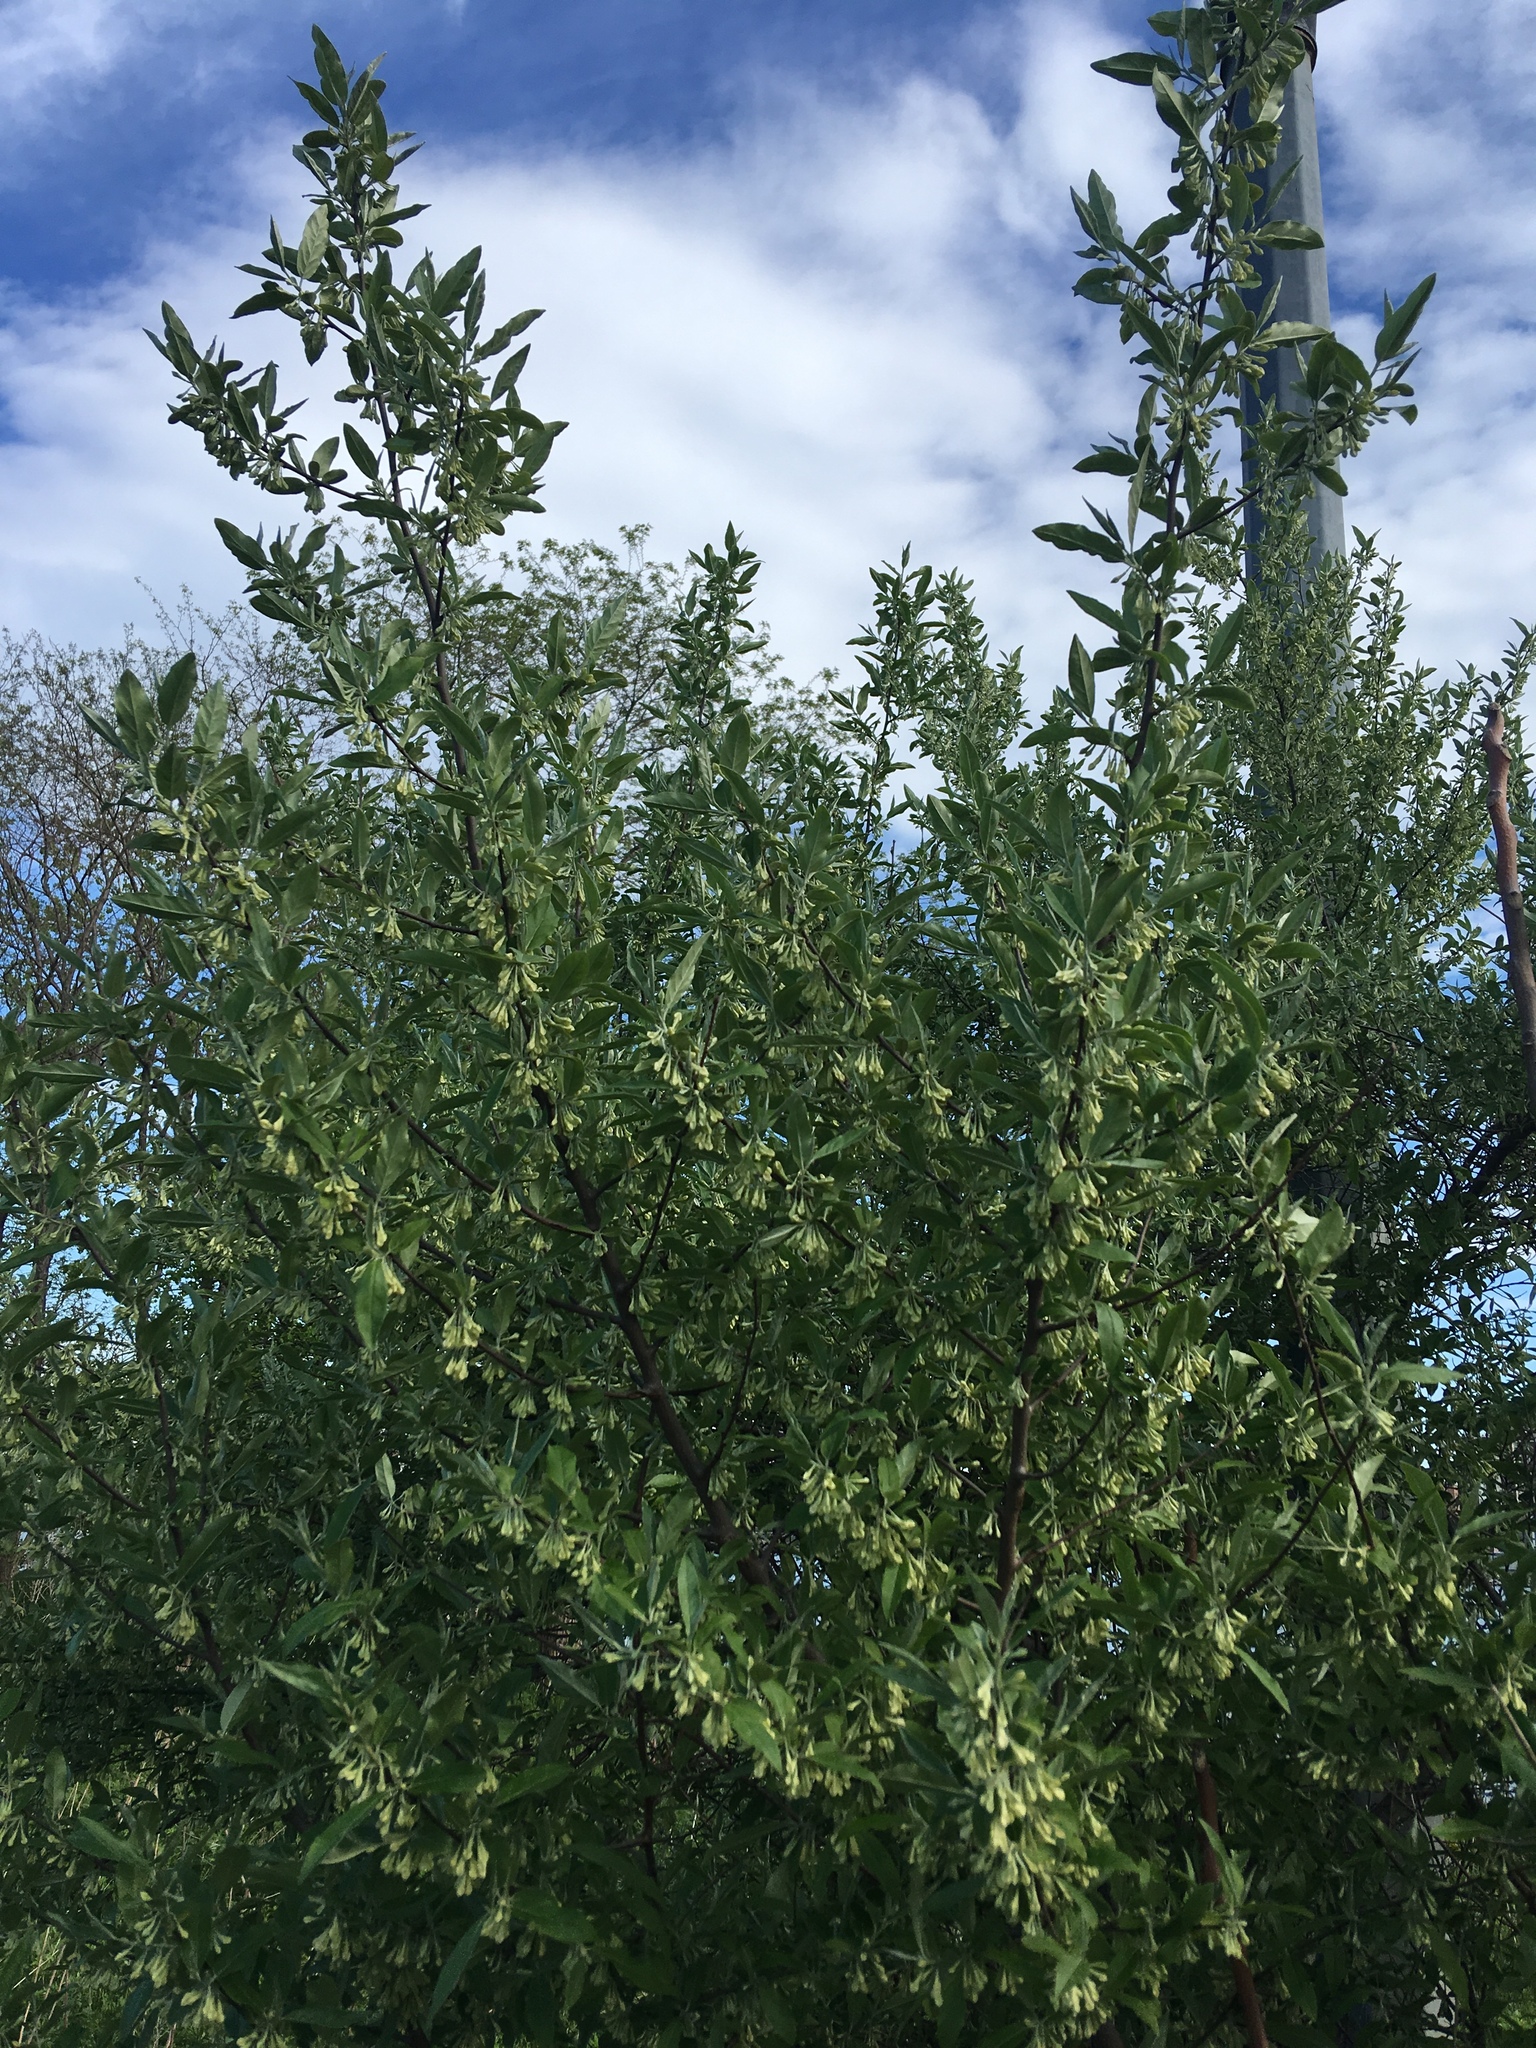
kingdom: Plantae
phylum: Tracheophyta
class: Magnoliopsida
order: Rosales
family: Elaeagnaceae
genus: Elaeagnus
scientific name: Elaeagnus umbellata
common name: Autumn olive
